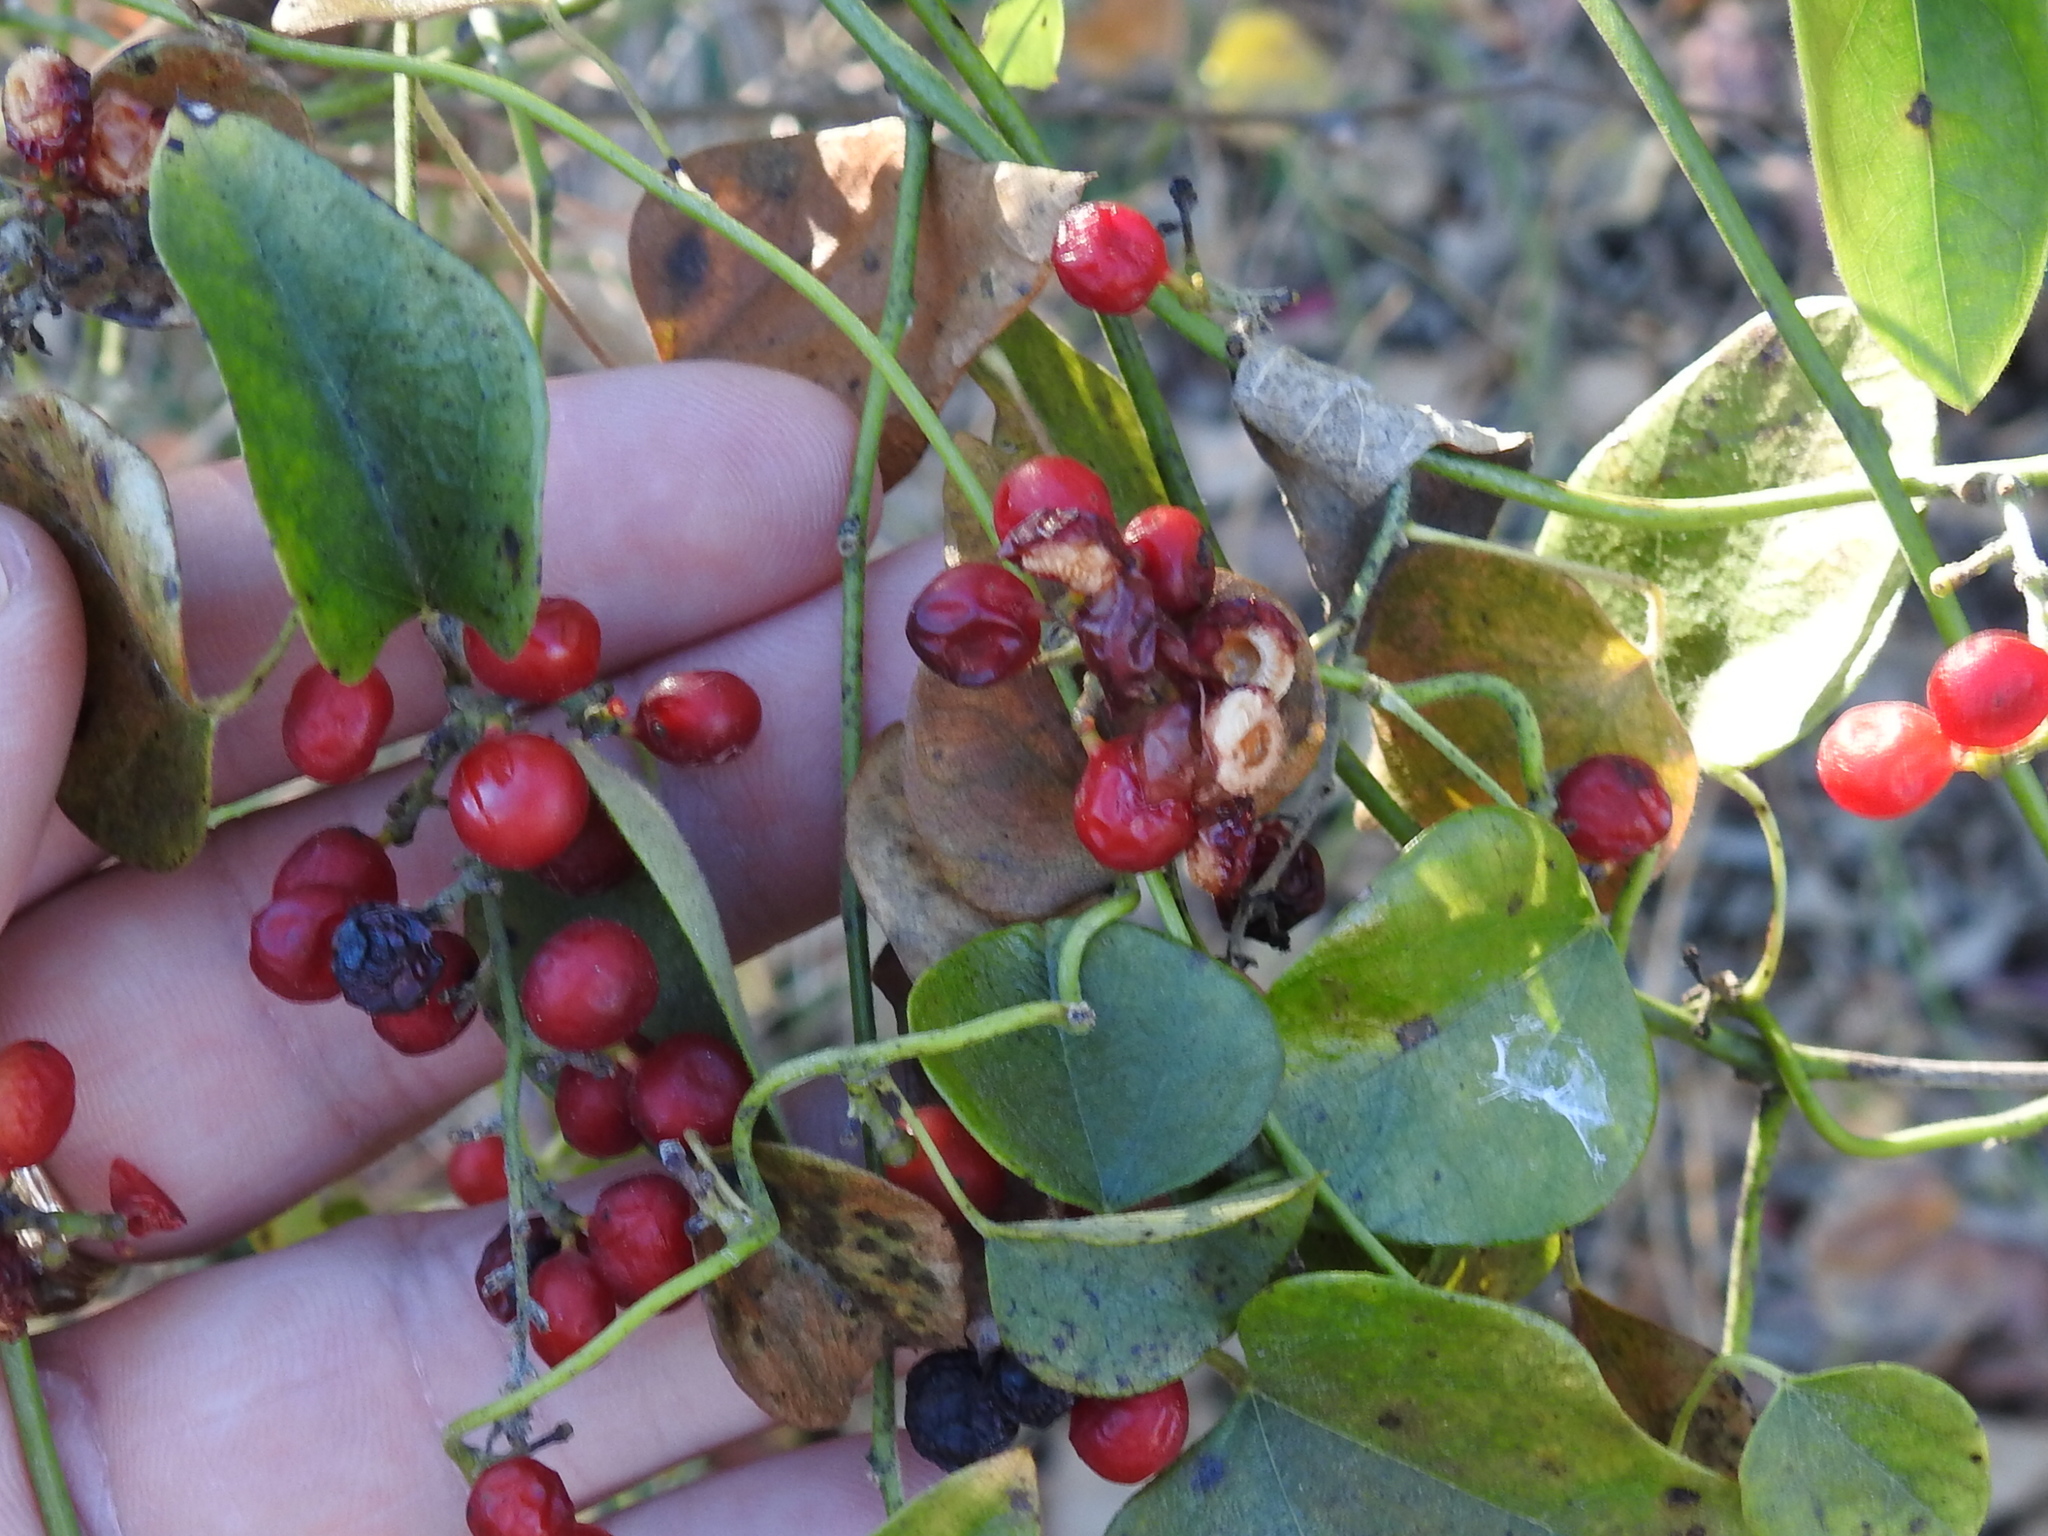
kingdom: Plantae
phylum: Tracheophyta
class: Magnoliopsida
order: Ranunculales
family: Menispermaceae
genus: Cocculus
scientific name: Cocculus carolinus
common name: Carolina moonseed
